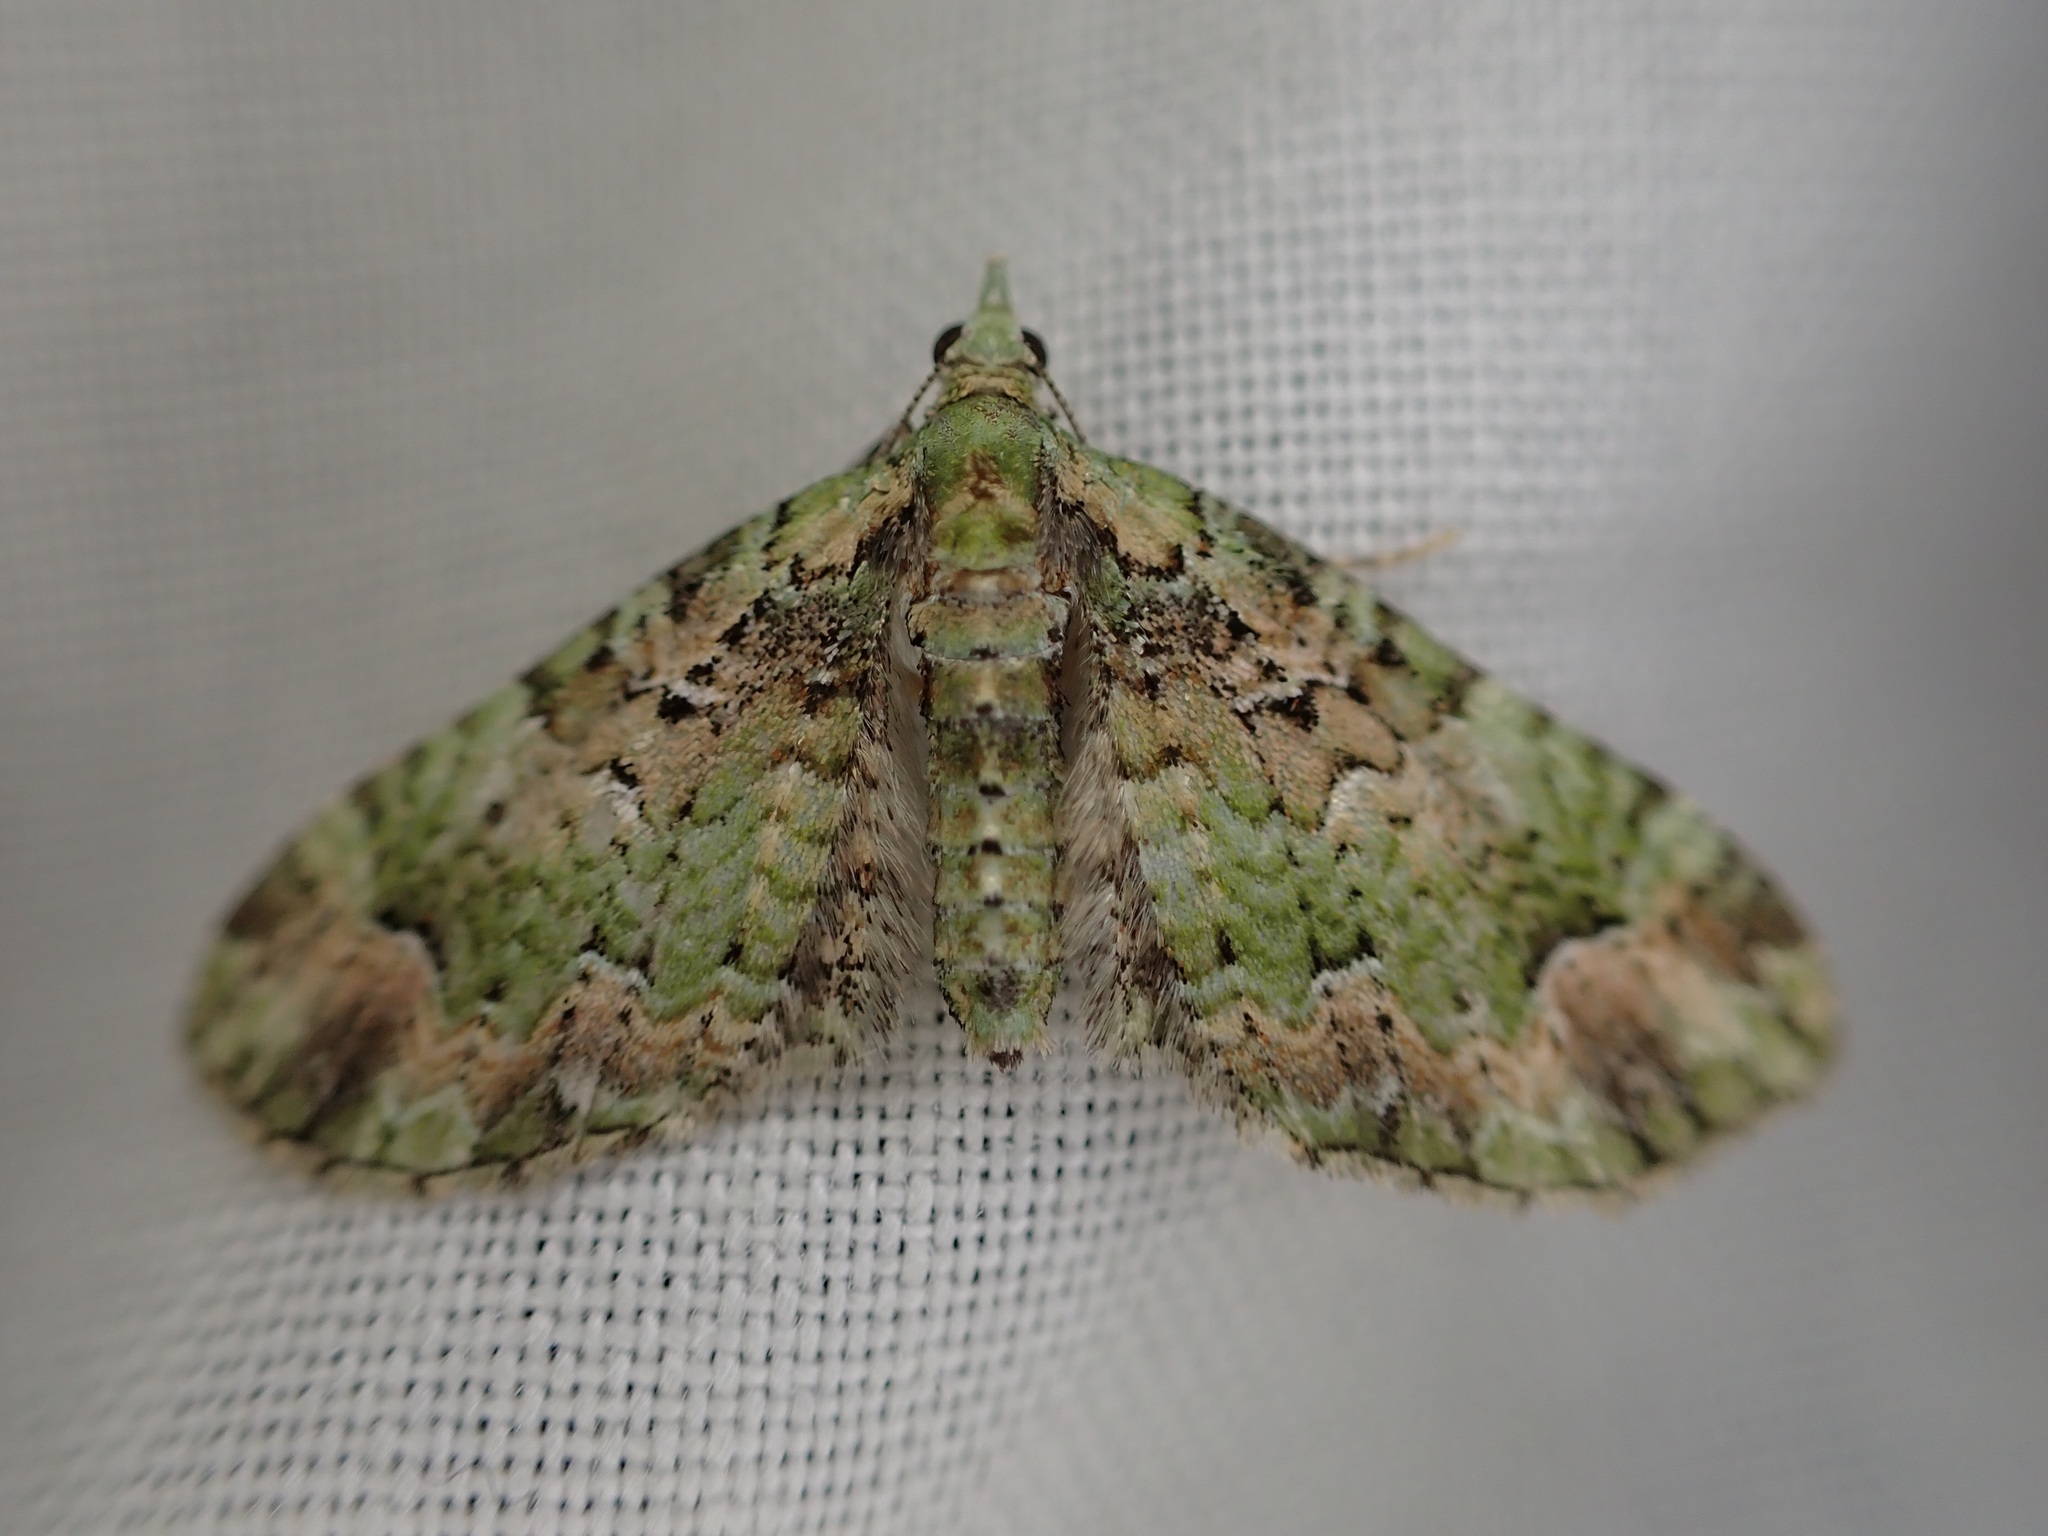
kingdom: Animalia
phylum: Arthropoda
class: Insecta
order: Lepidoptera
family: Geometridae
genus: Pasiphila
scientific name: Pasiphila semochlora
